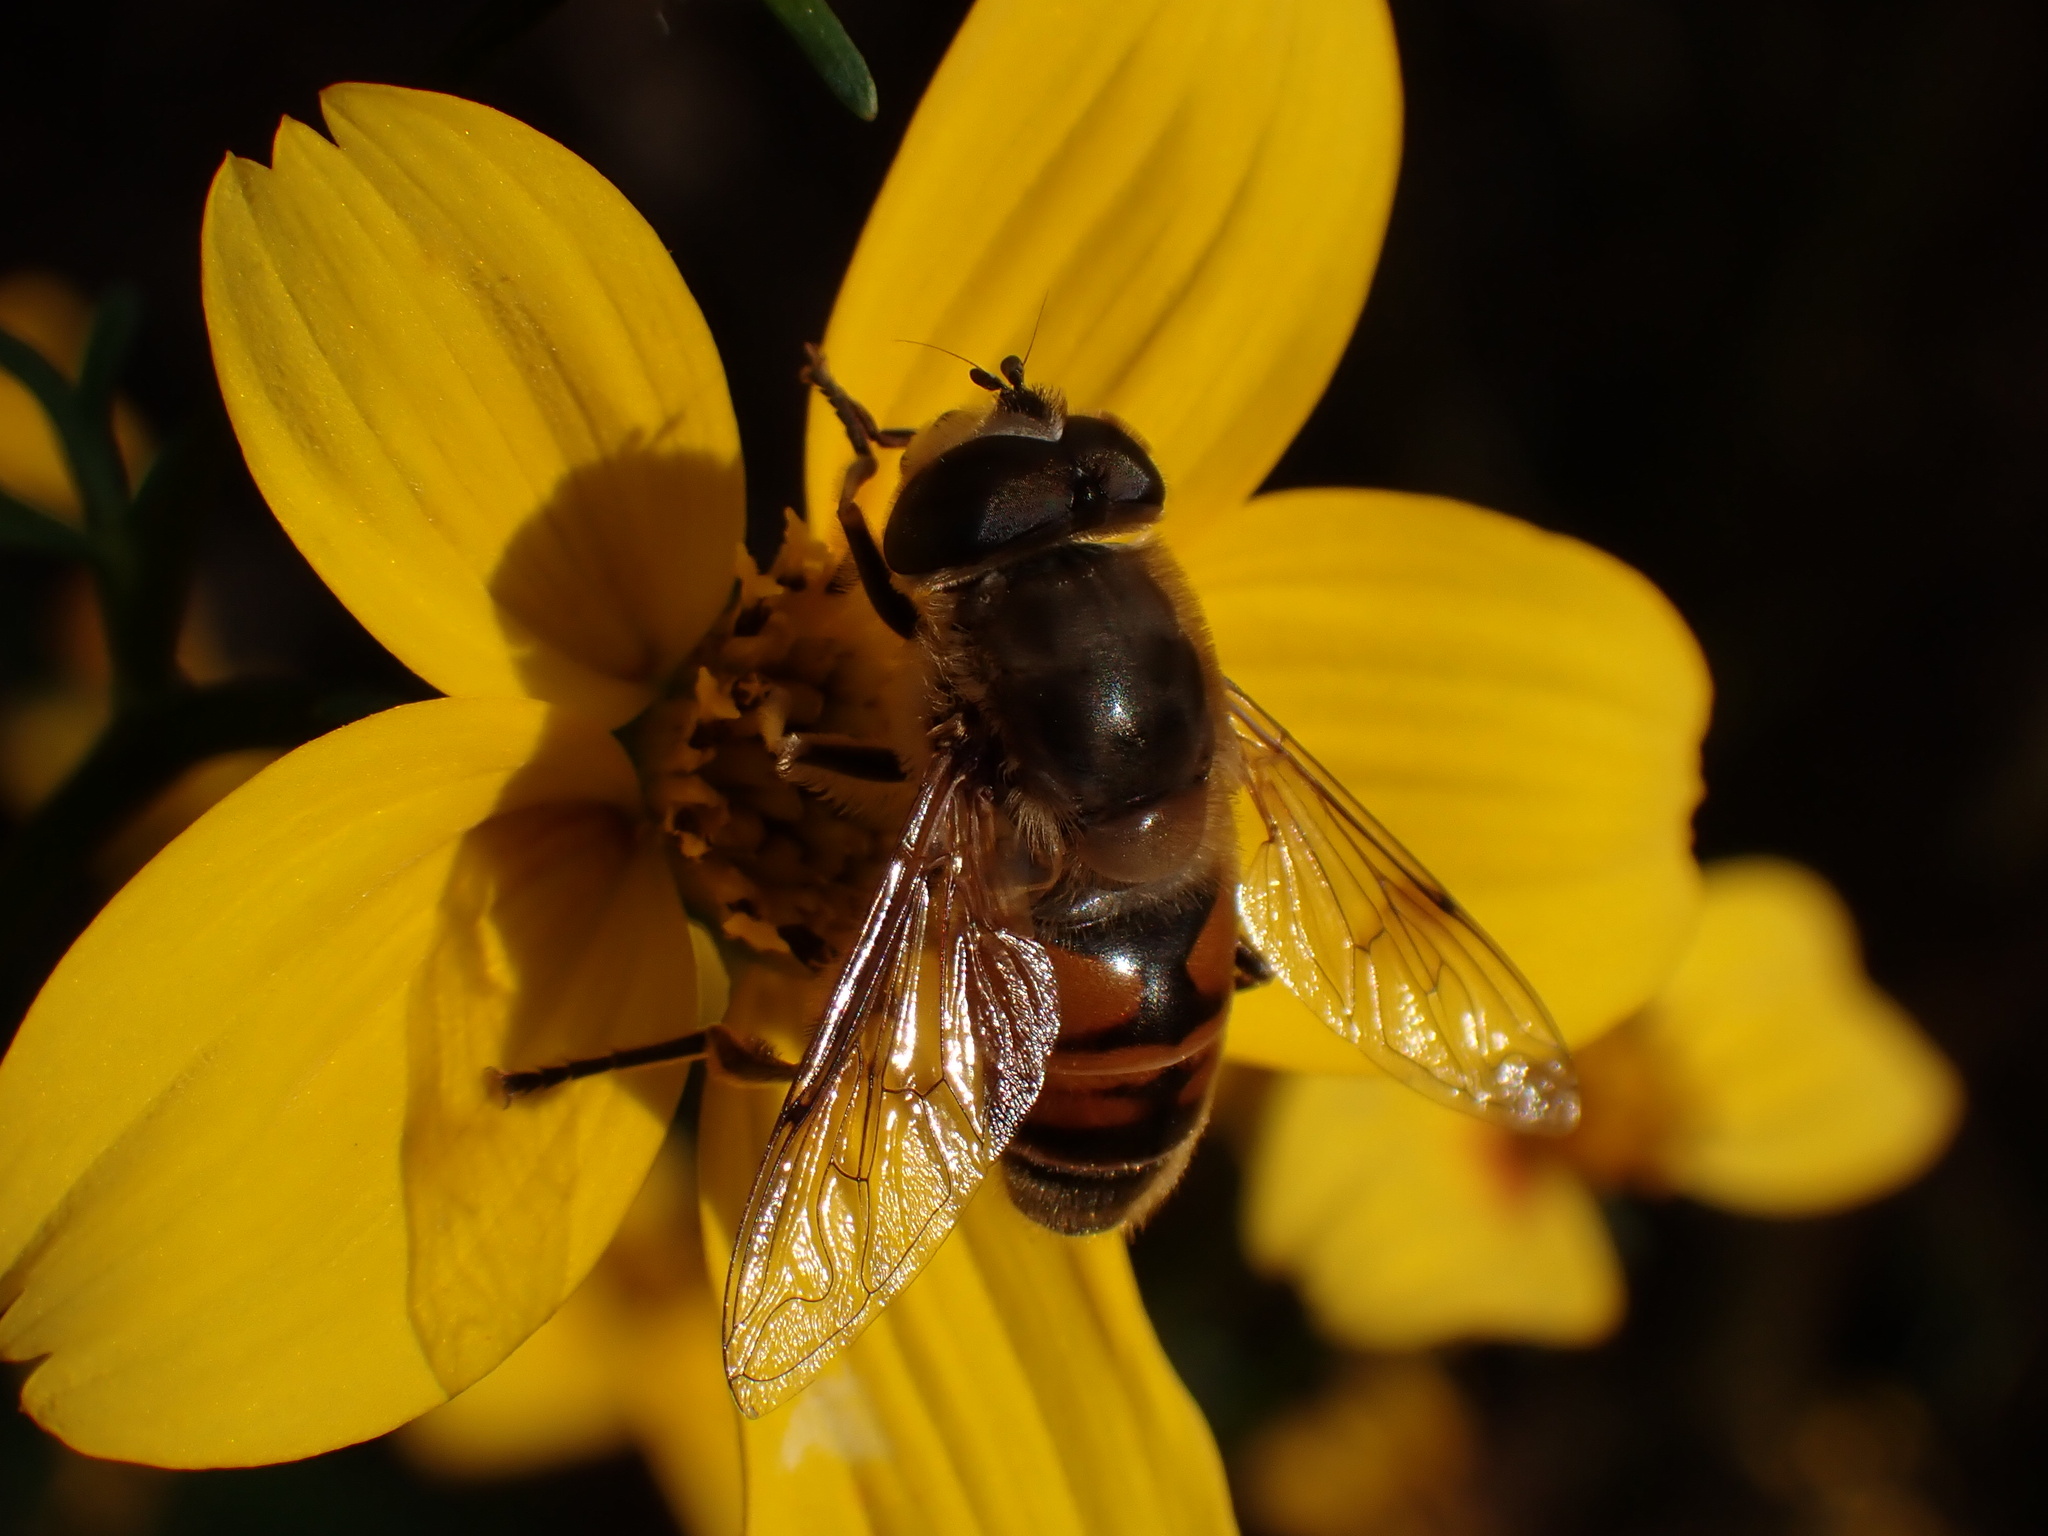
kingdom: Animalia
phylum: Arthropoda
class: Insecta
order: Diptera
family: Syrphidae
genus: Eristalis
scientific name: Eristalis tenax
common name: Drone fly
